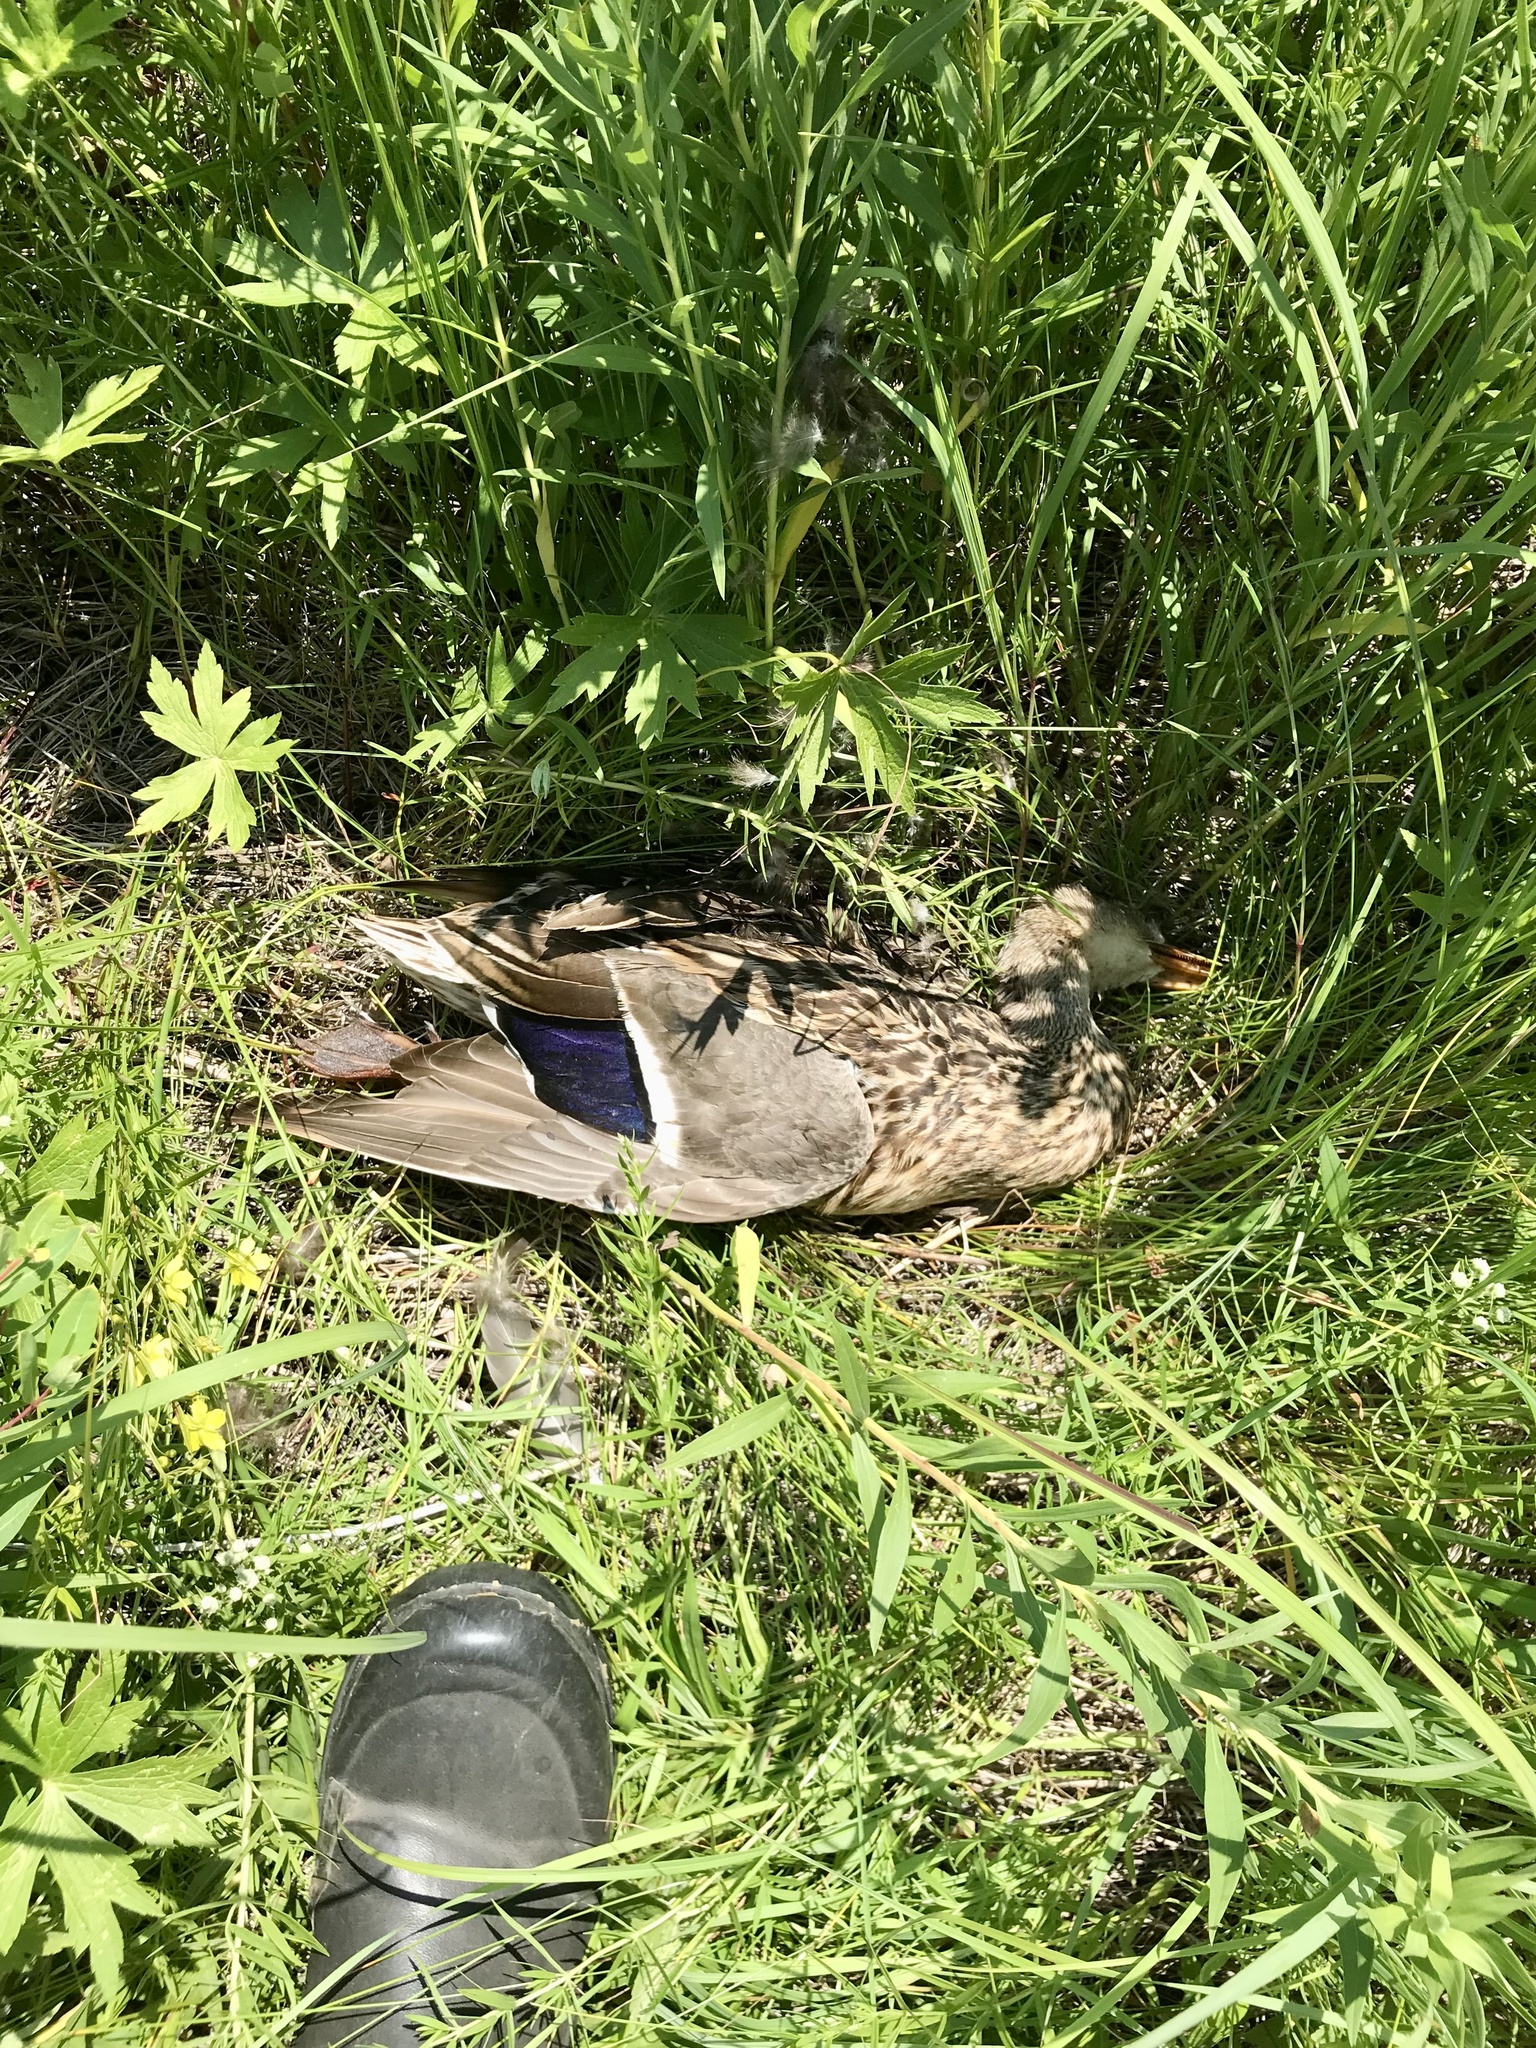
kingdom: Animalia
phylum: Chordata
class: Aves
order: Anseriformes
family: Anatidae
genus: Anas
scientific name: Anas platyrhynchos
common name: Mallard
